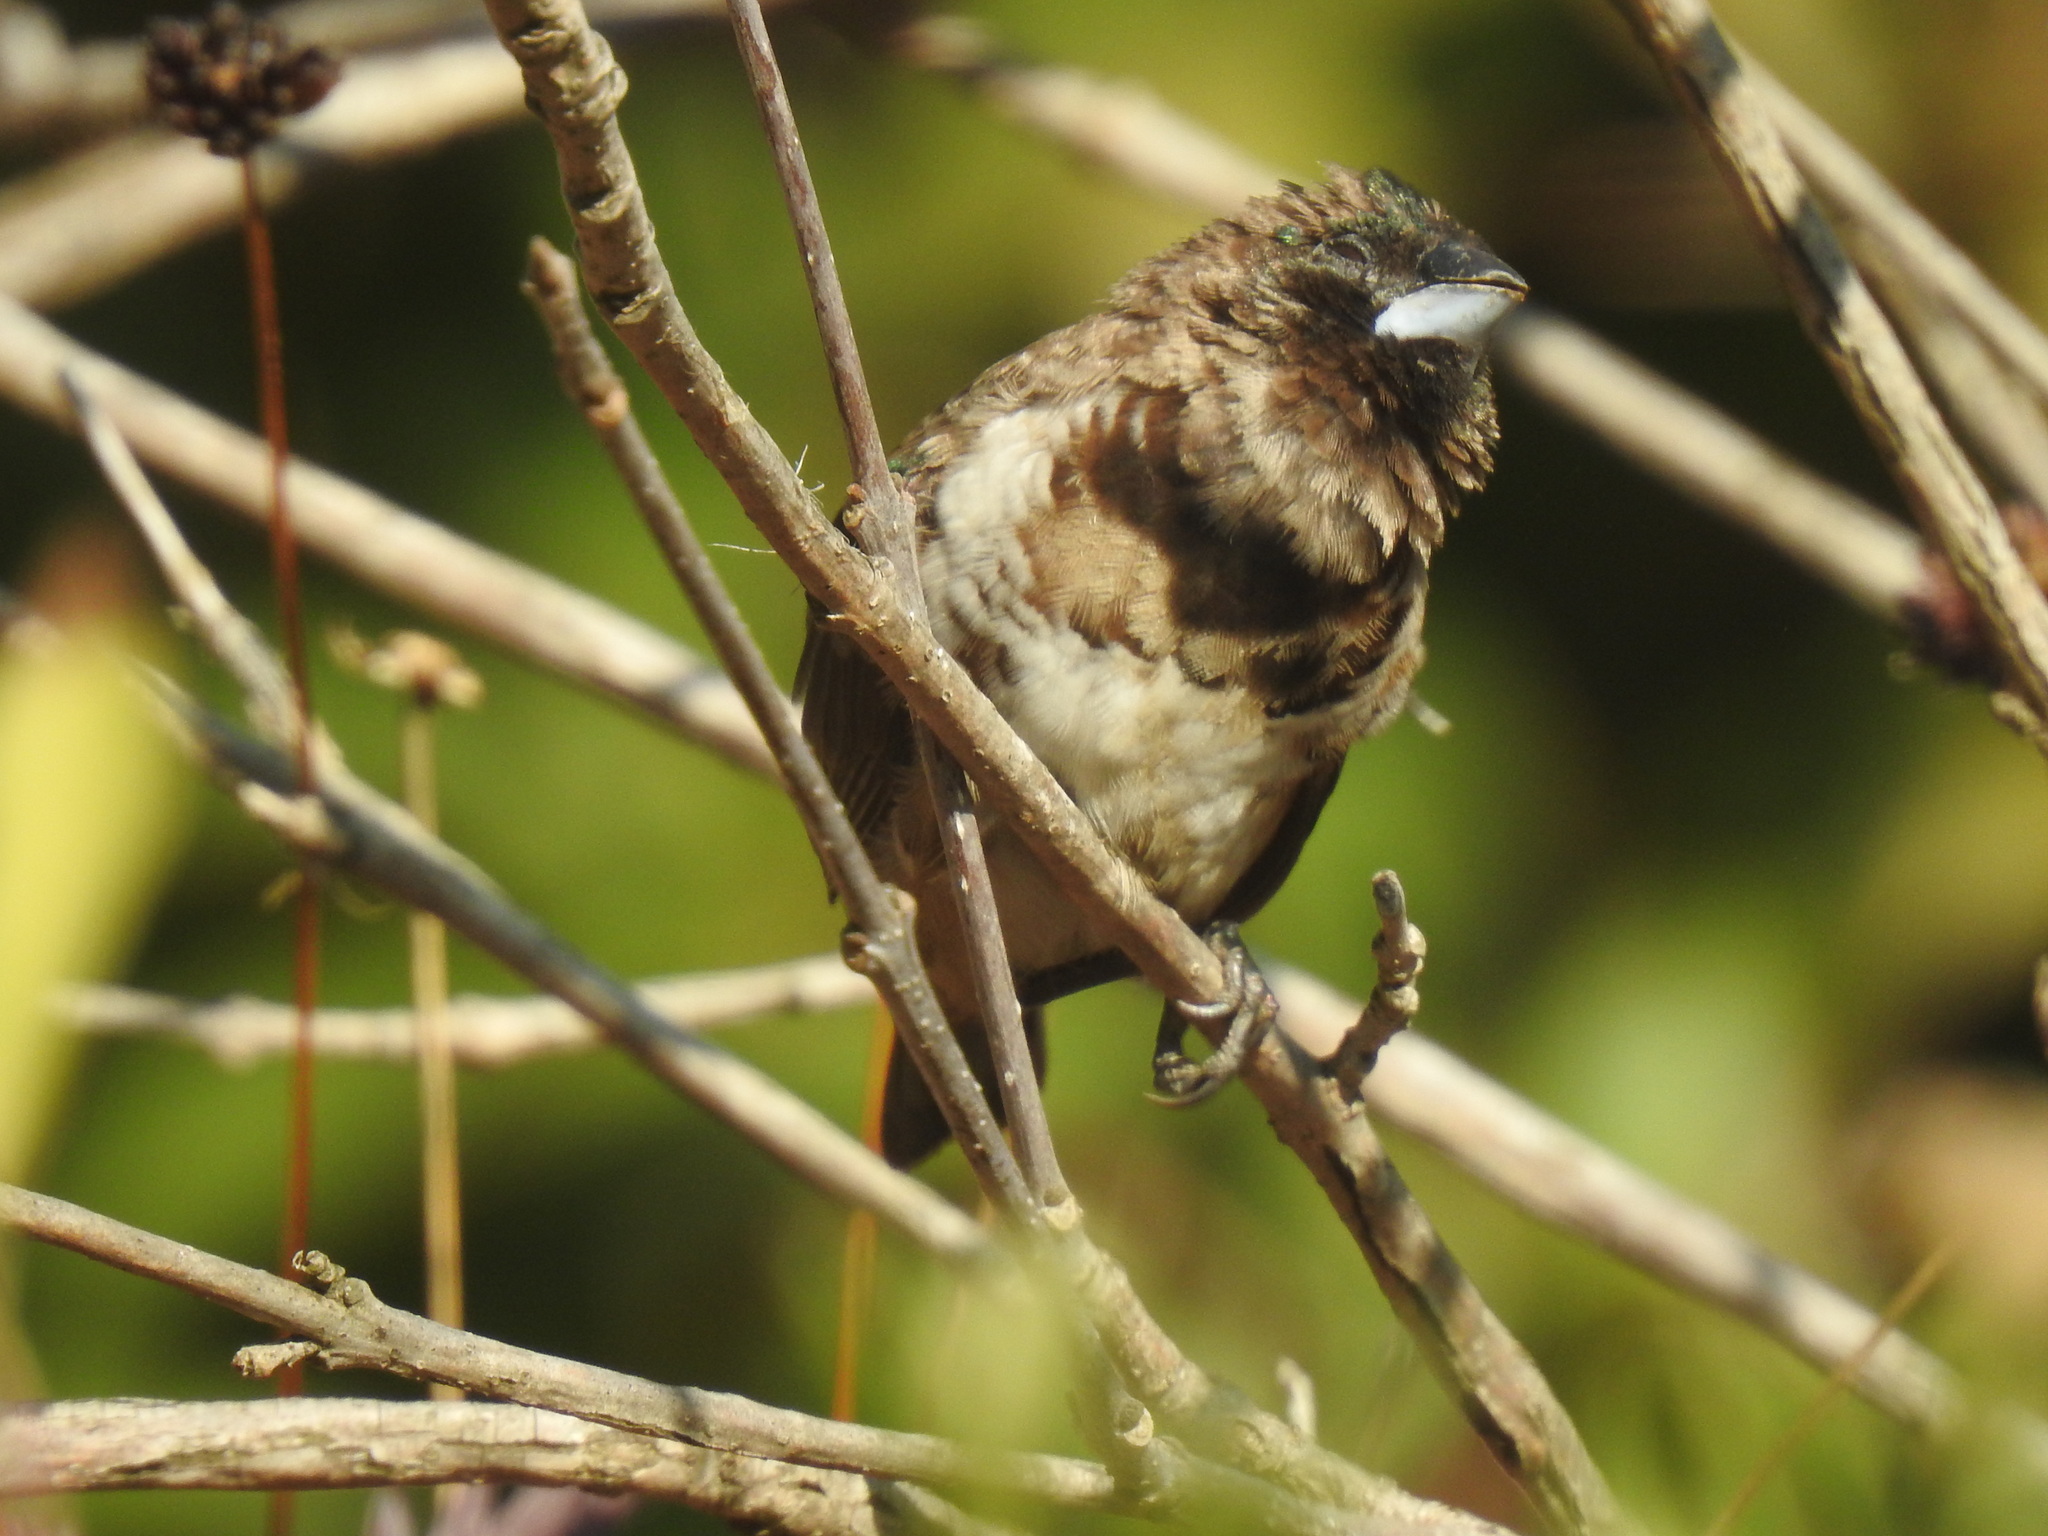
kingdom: Animalia
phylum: Chordata
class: Aves
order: Passeriformes
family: Estrildidae
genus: Lonchura
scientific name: Lonchura cucullata
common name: Bronze mannikin
